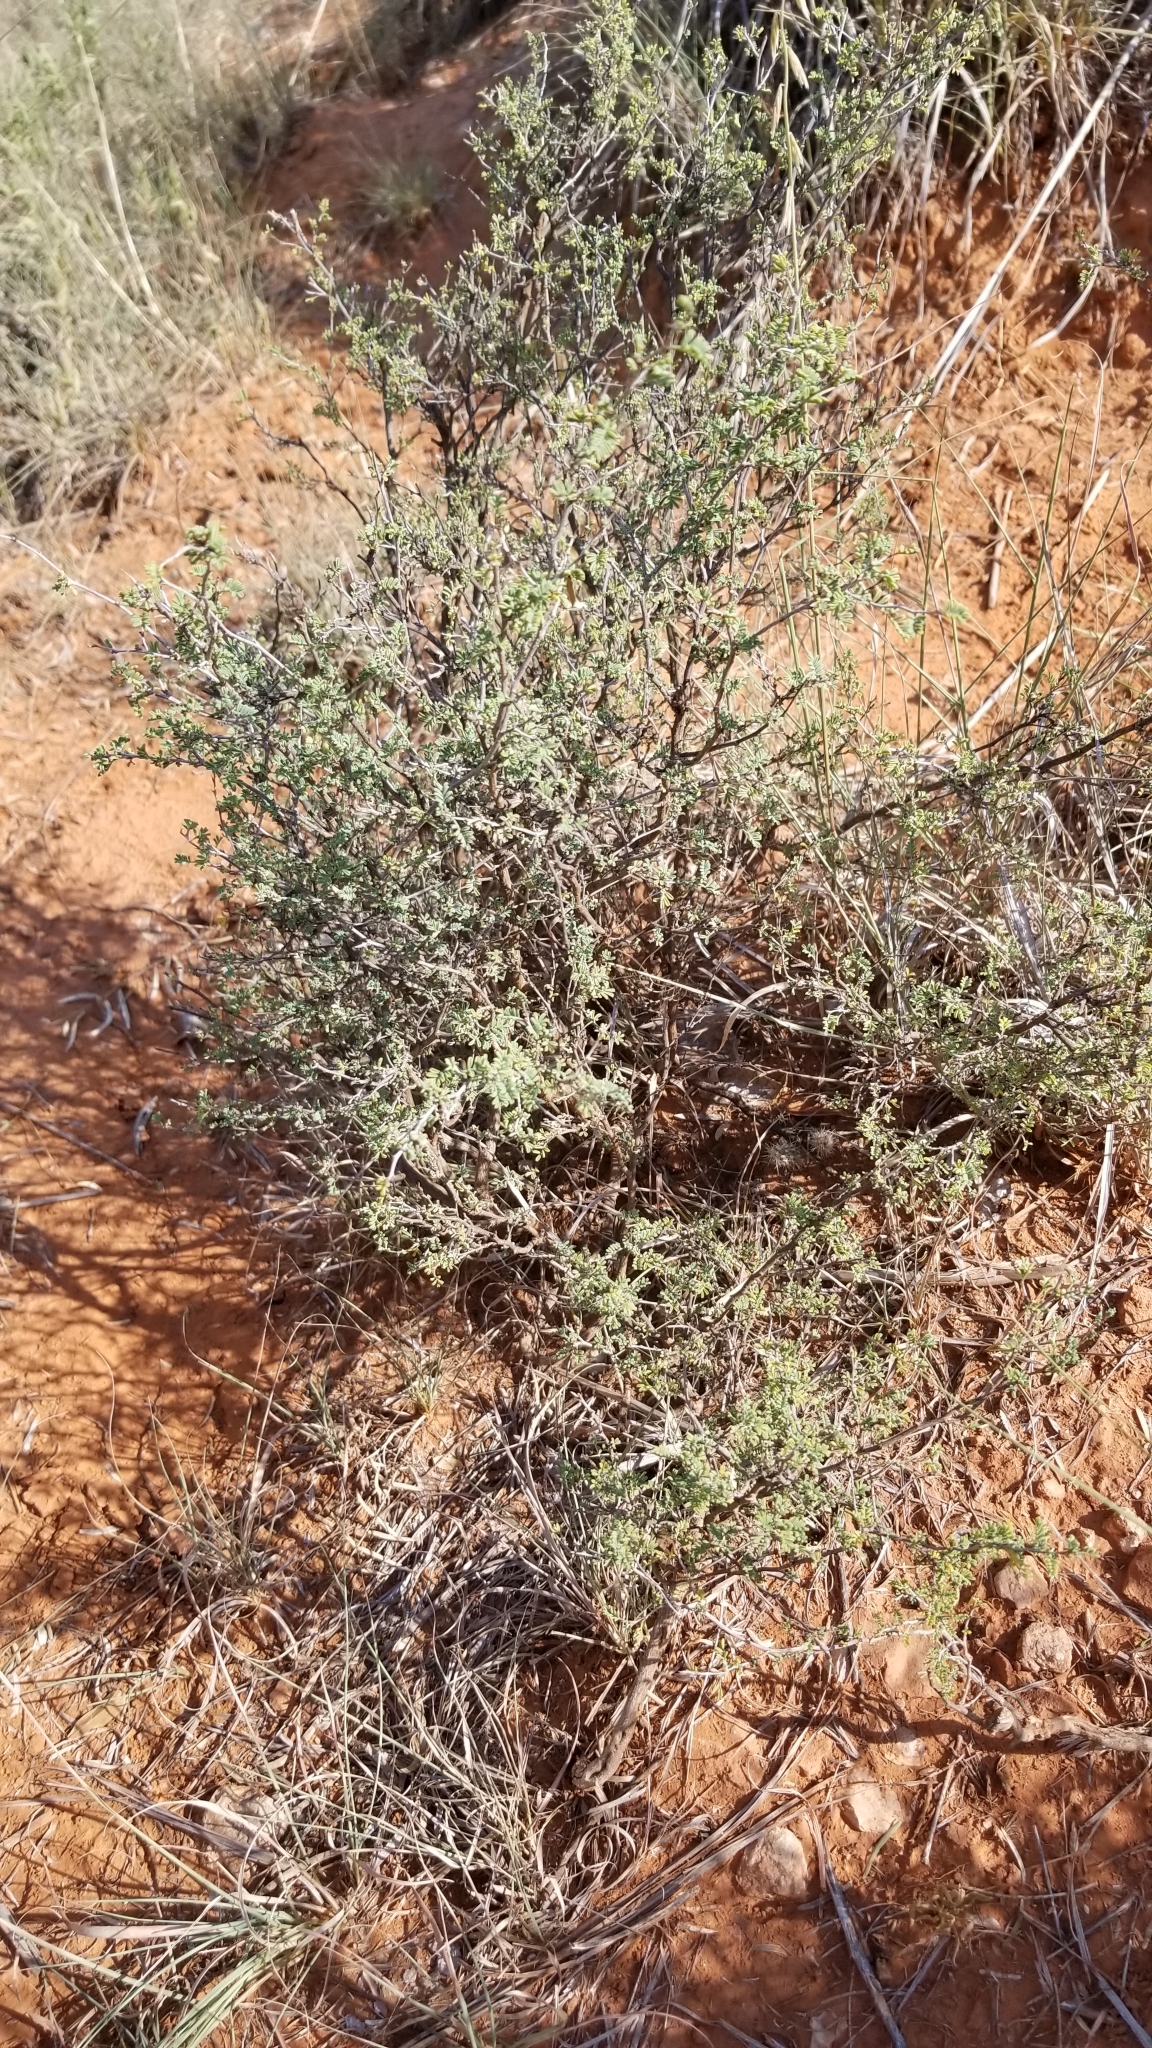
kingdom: Plantae
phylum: Tracheophyta
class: Magnoliopsida
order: Fabales
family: Fabaceae
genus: Dalea
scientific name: Dalea formosa
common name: Feather-plume dalea
